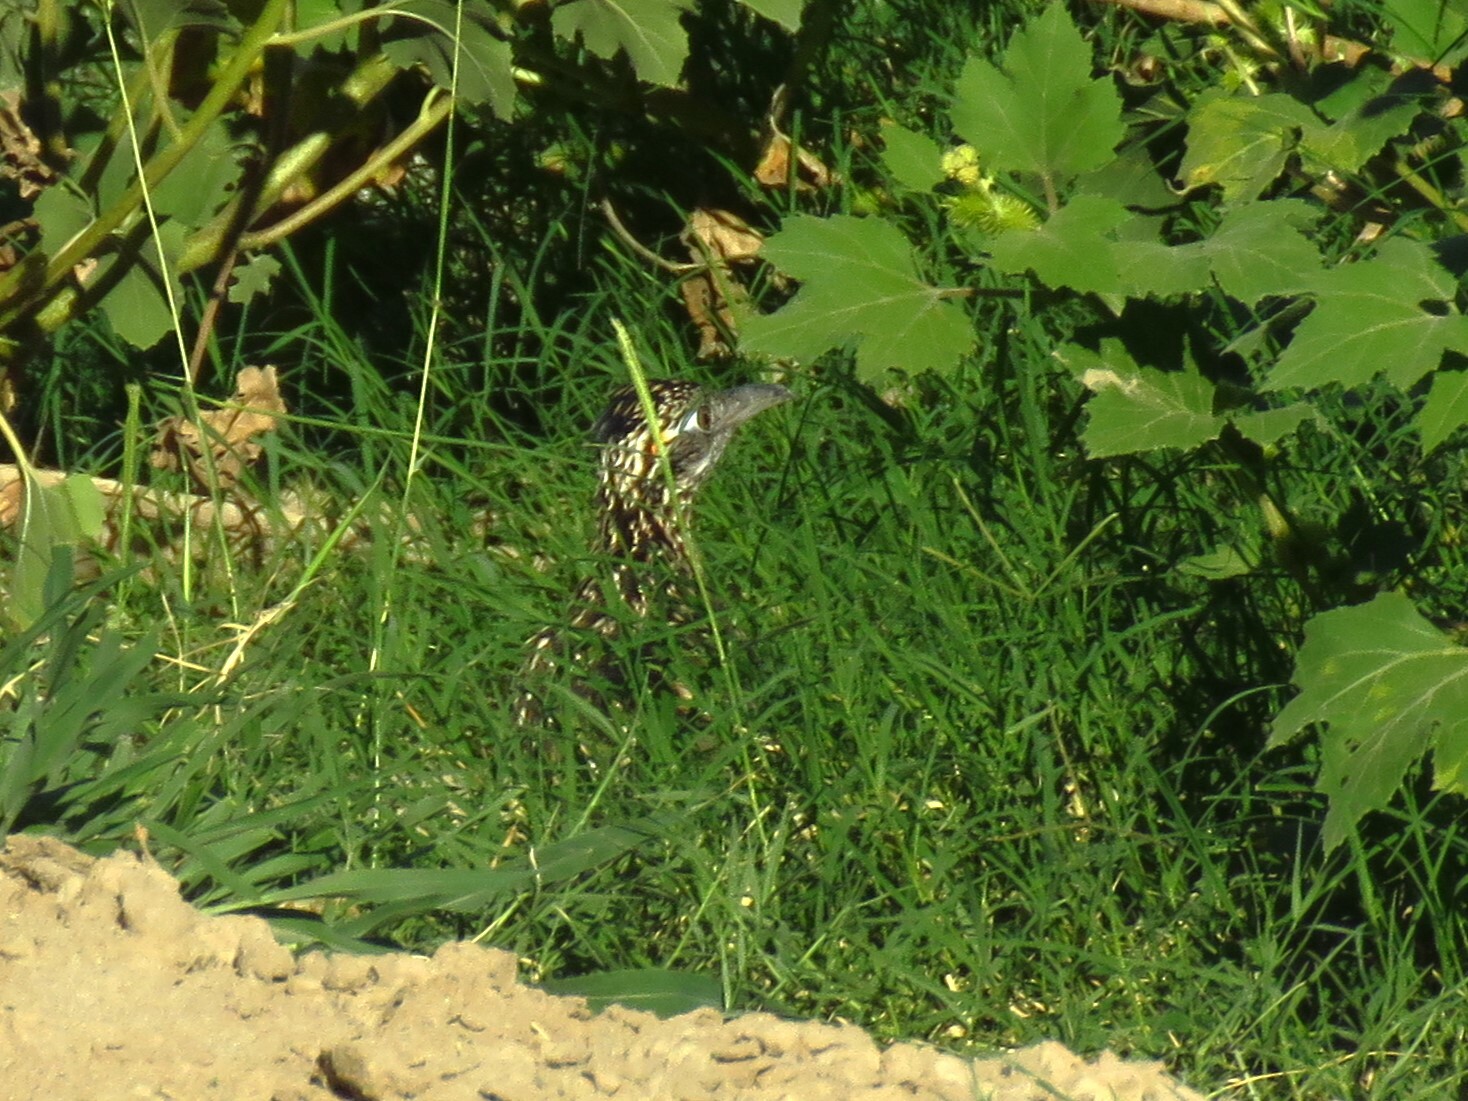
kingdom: Animalia
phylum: Chordata
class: Aves
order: Cuculiformes
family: Cuculidae
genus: Geococcyx
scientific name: Geococcyx californianus
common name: Greater roadrunner
